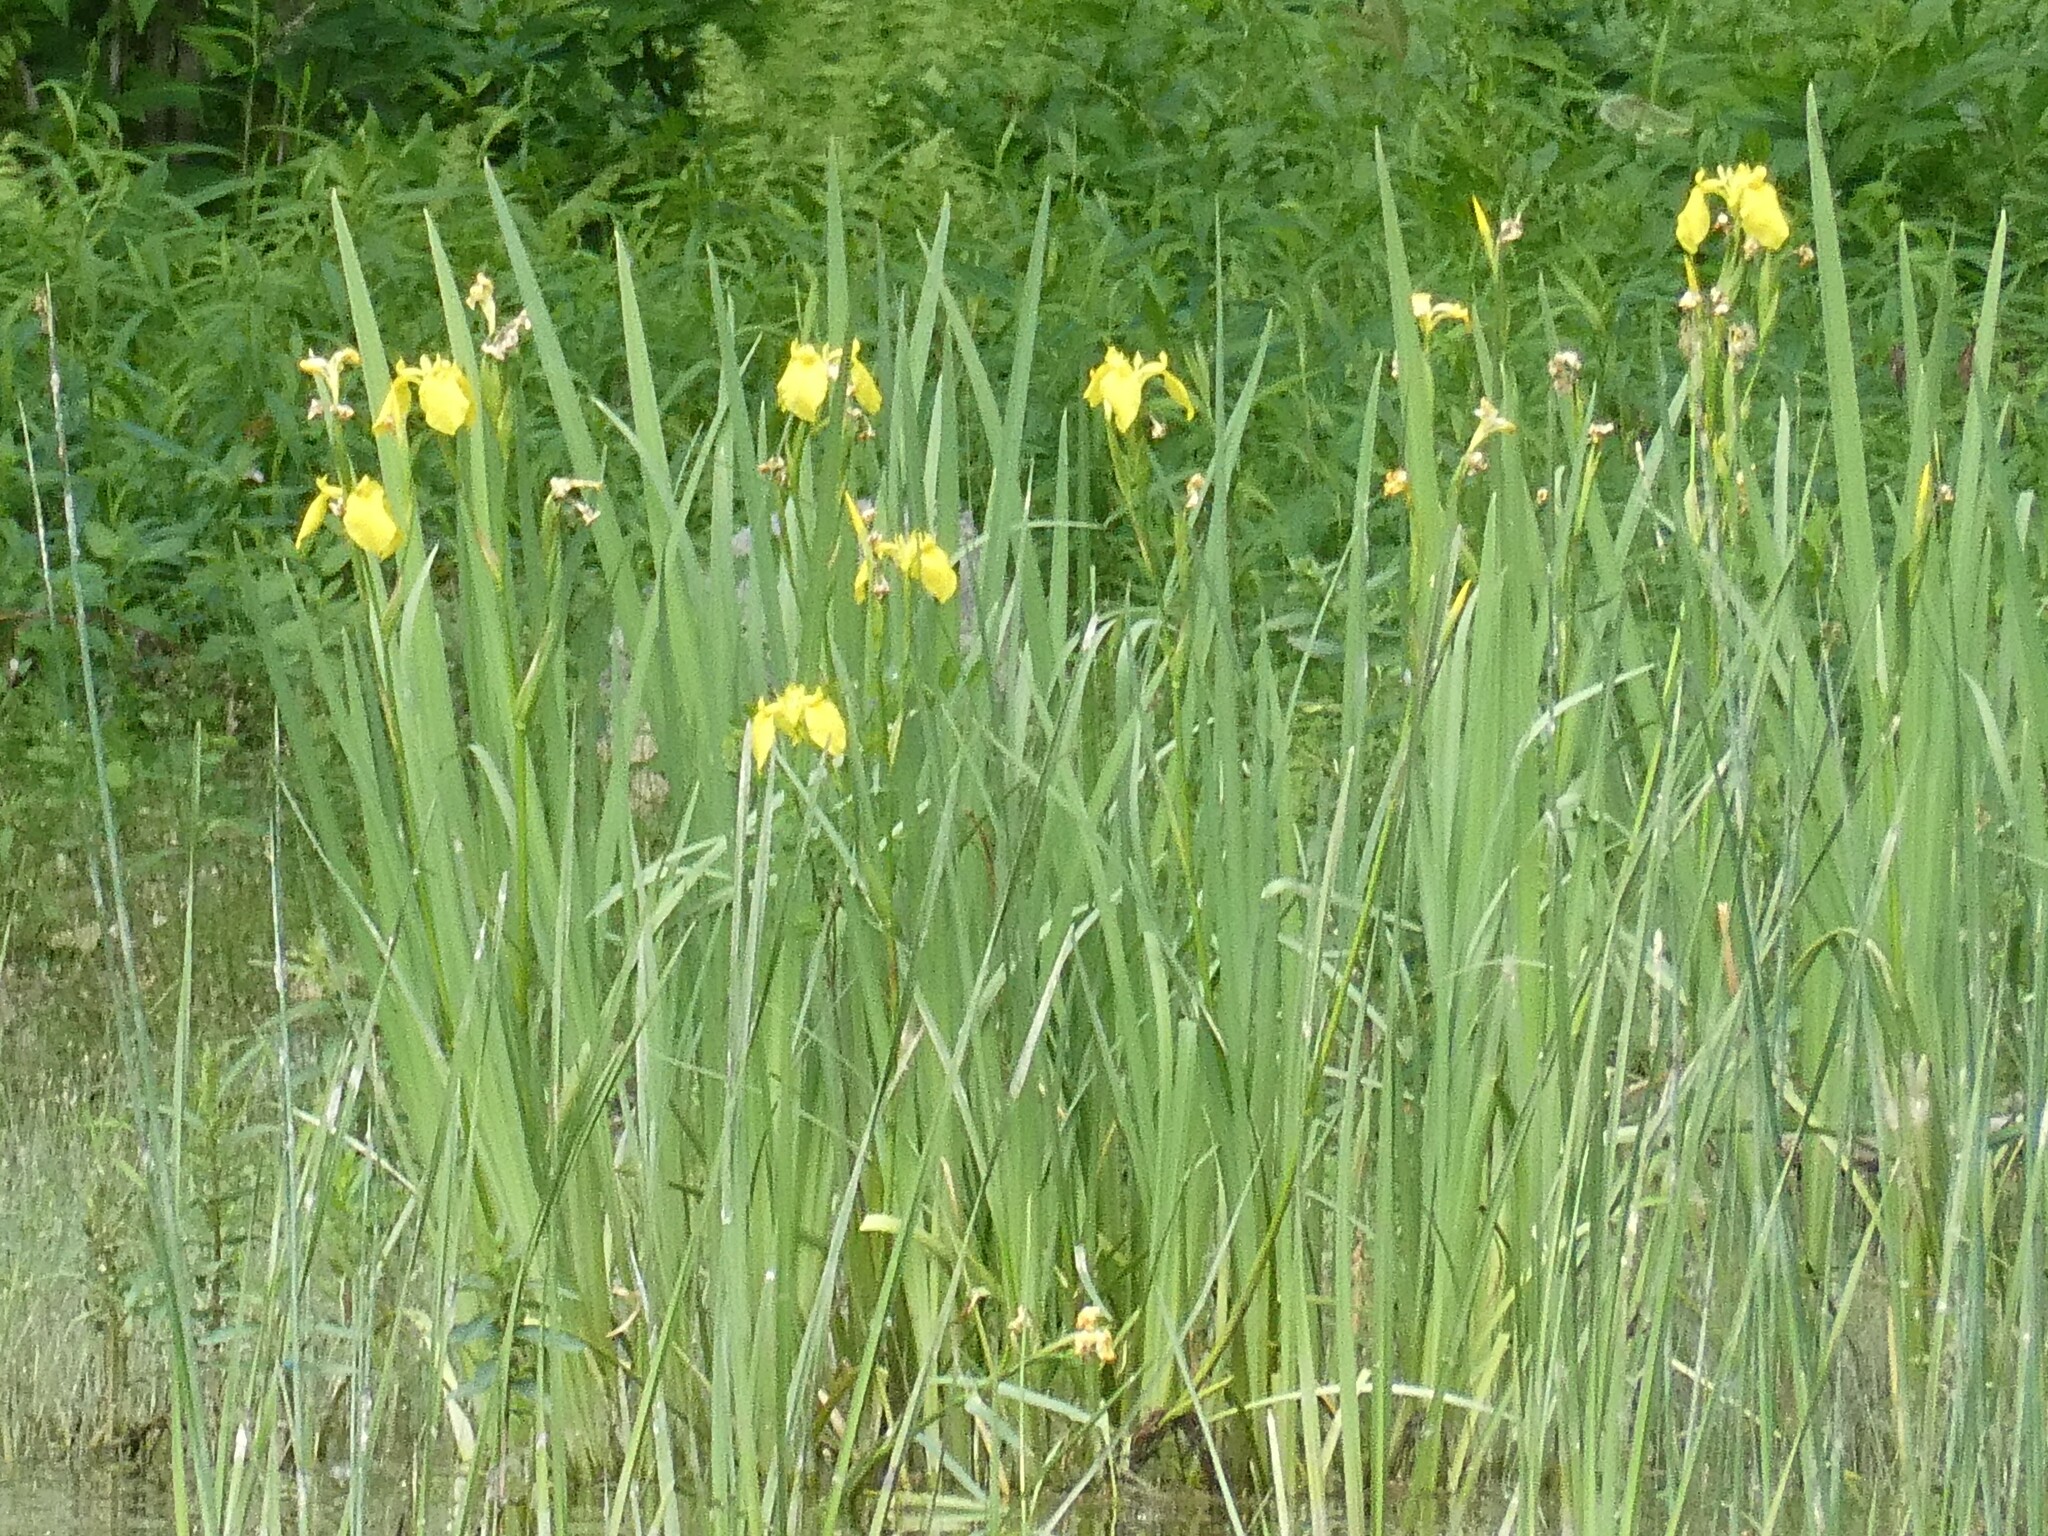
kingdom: Plantae
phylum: Tracheophyta
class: Liliopsida
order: Asparagales
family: Iridaceae
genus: Iris
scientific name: Iris pseudacorus
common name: Yellow flag
